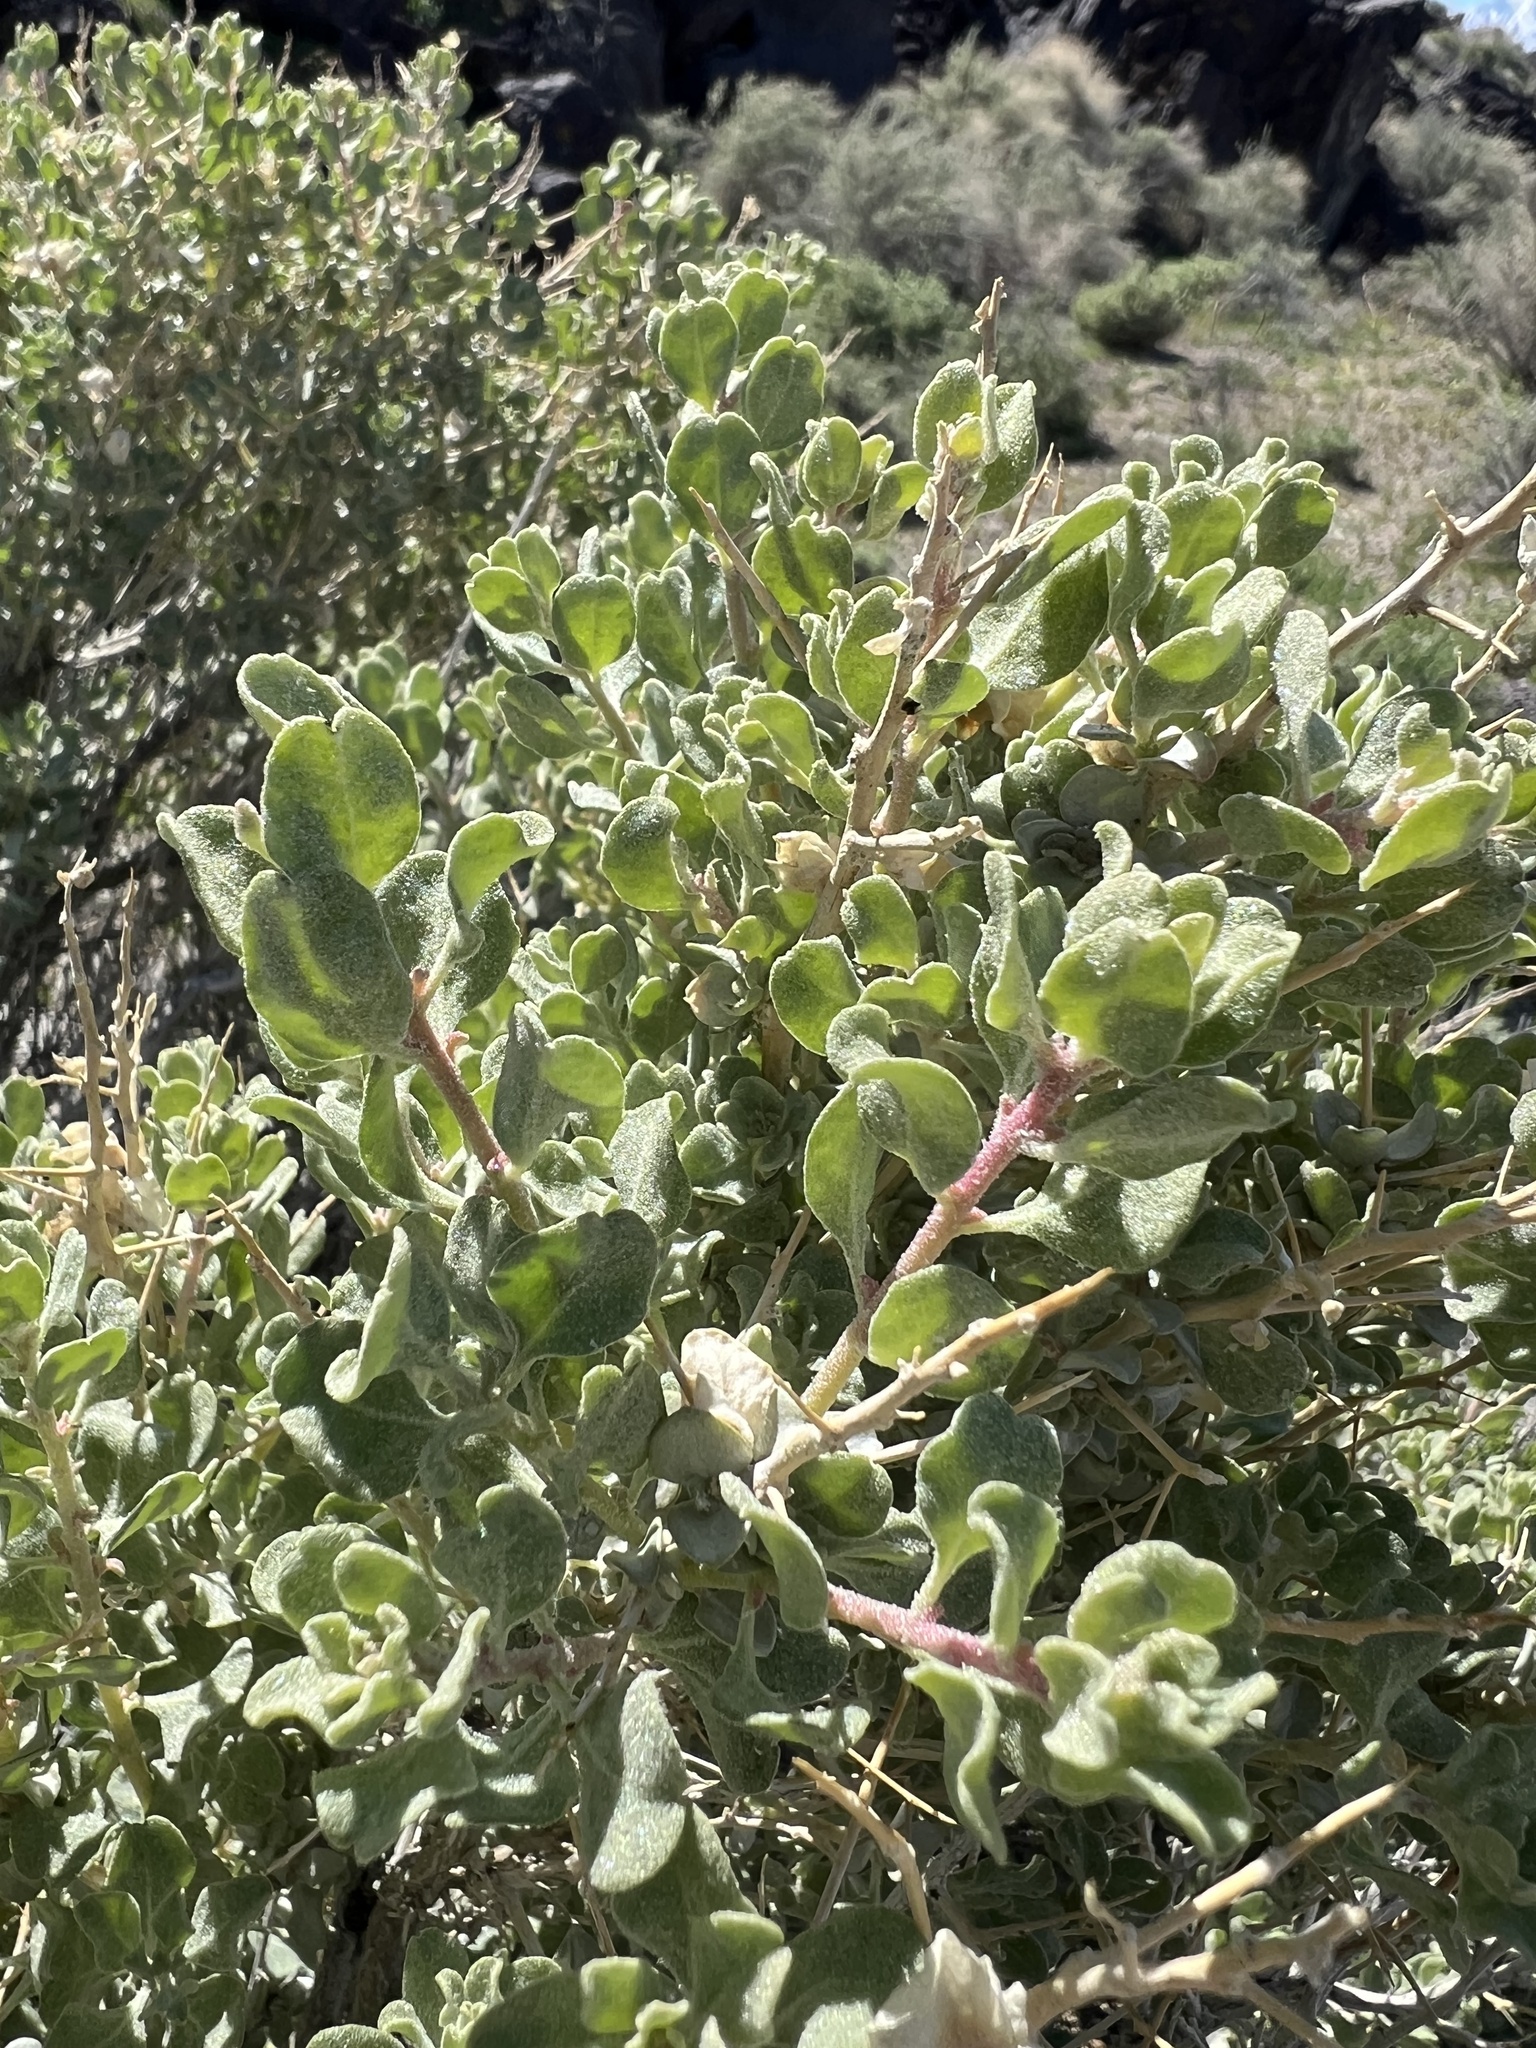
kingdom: Plantae
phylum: Tracheophyta
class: Magnoliopsida
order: Caryophyllales
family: Amaranthaceae
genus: Atriplex
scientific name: Atriplex confertifolia
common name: Shadscale
